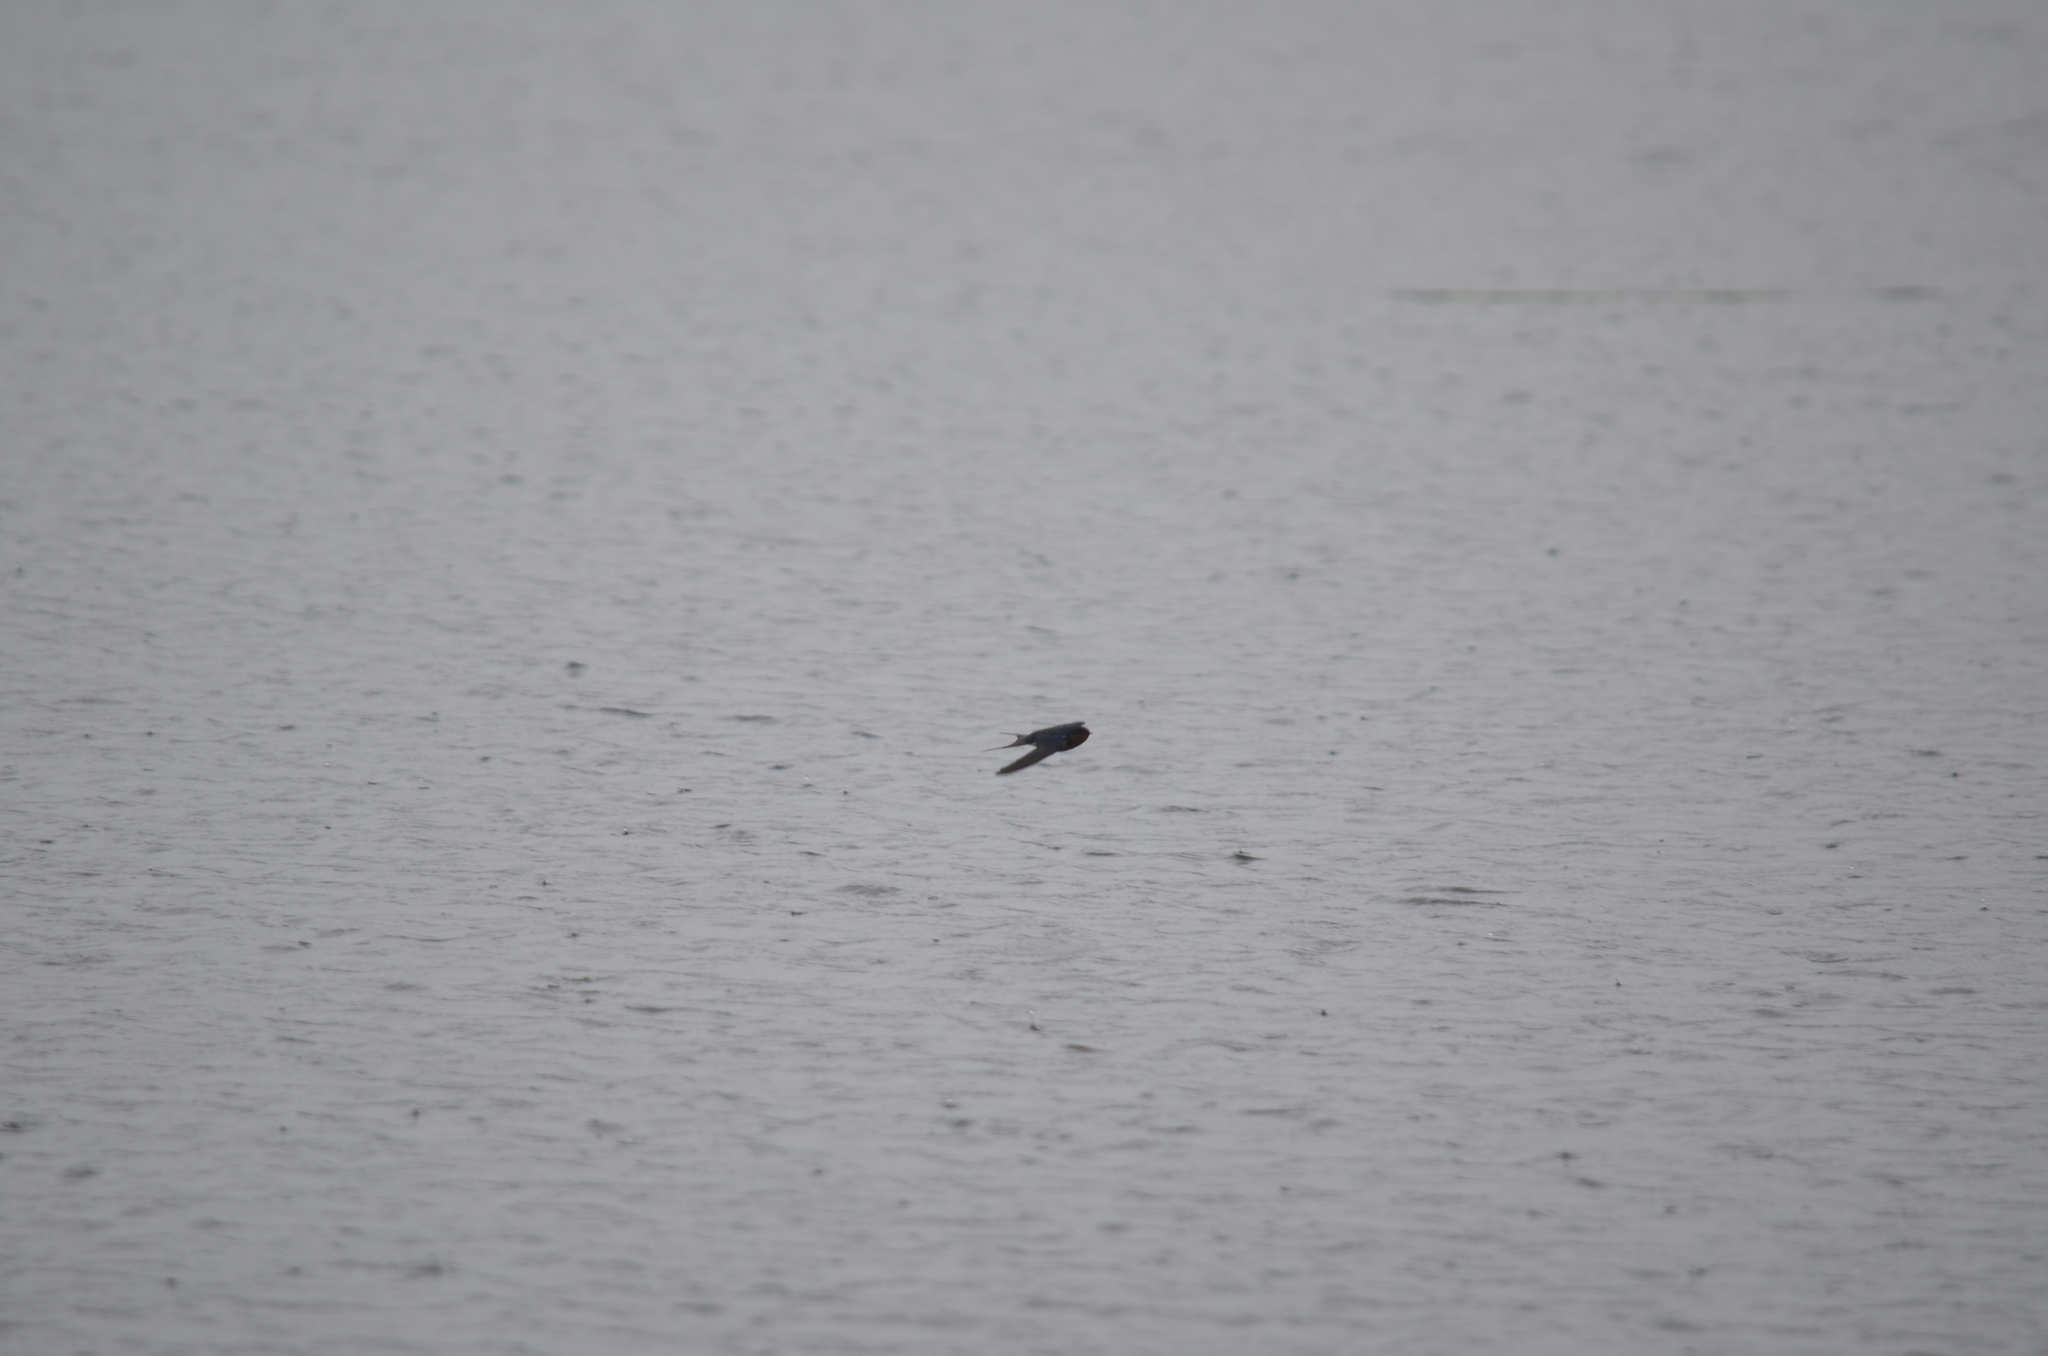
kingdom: Animalia
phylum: Chordata
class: Aves
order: Passeriformes
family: Hirundinidae
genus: Hirundo
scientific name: Hirundo rustica
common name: Barn swallow
